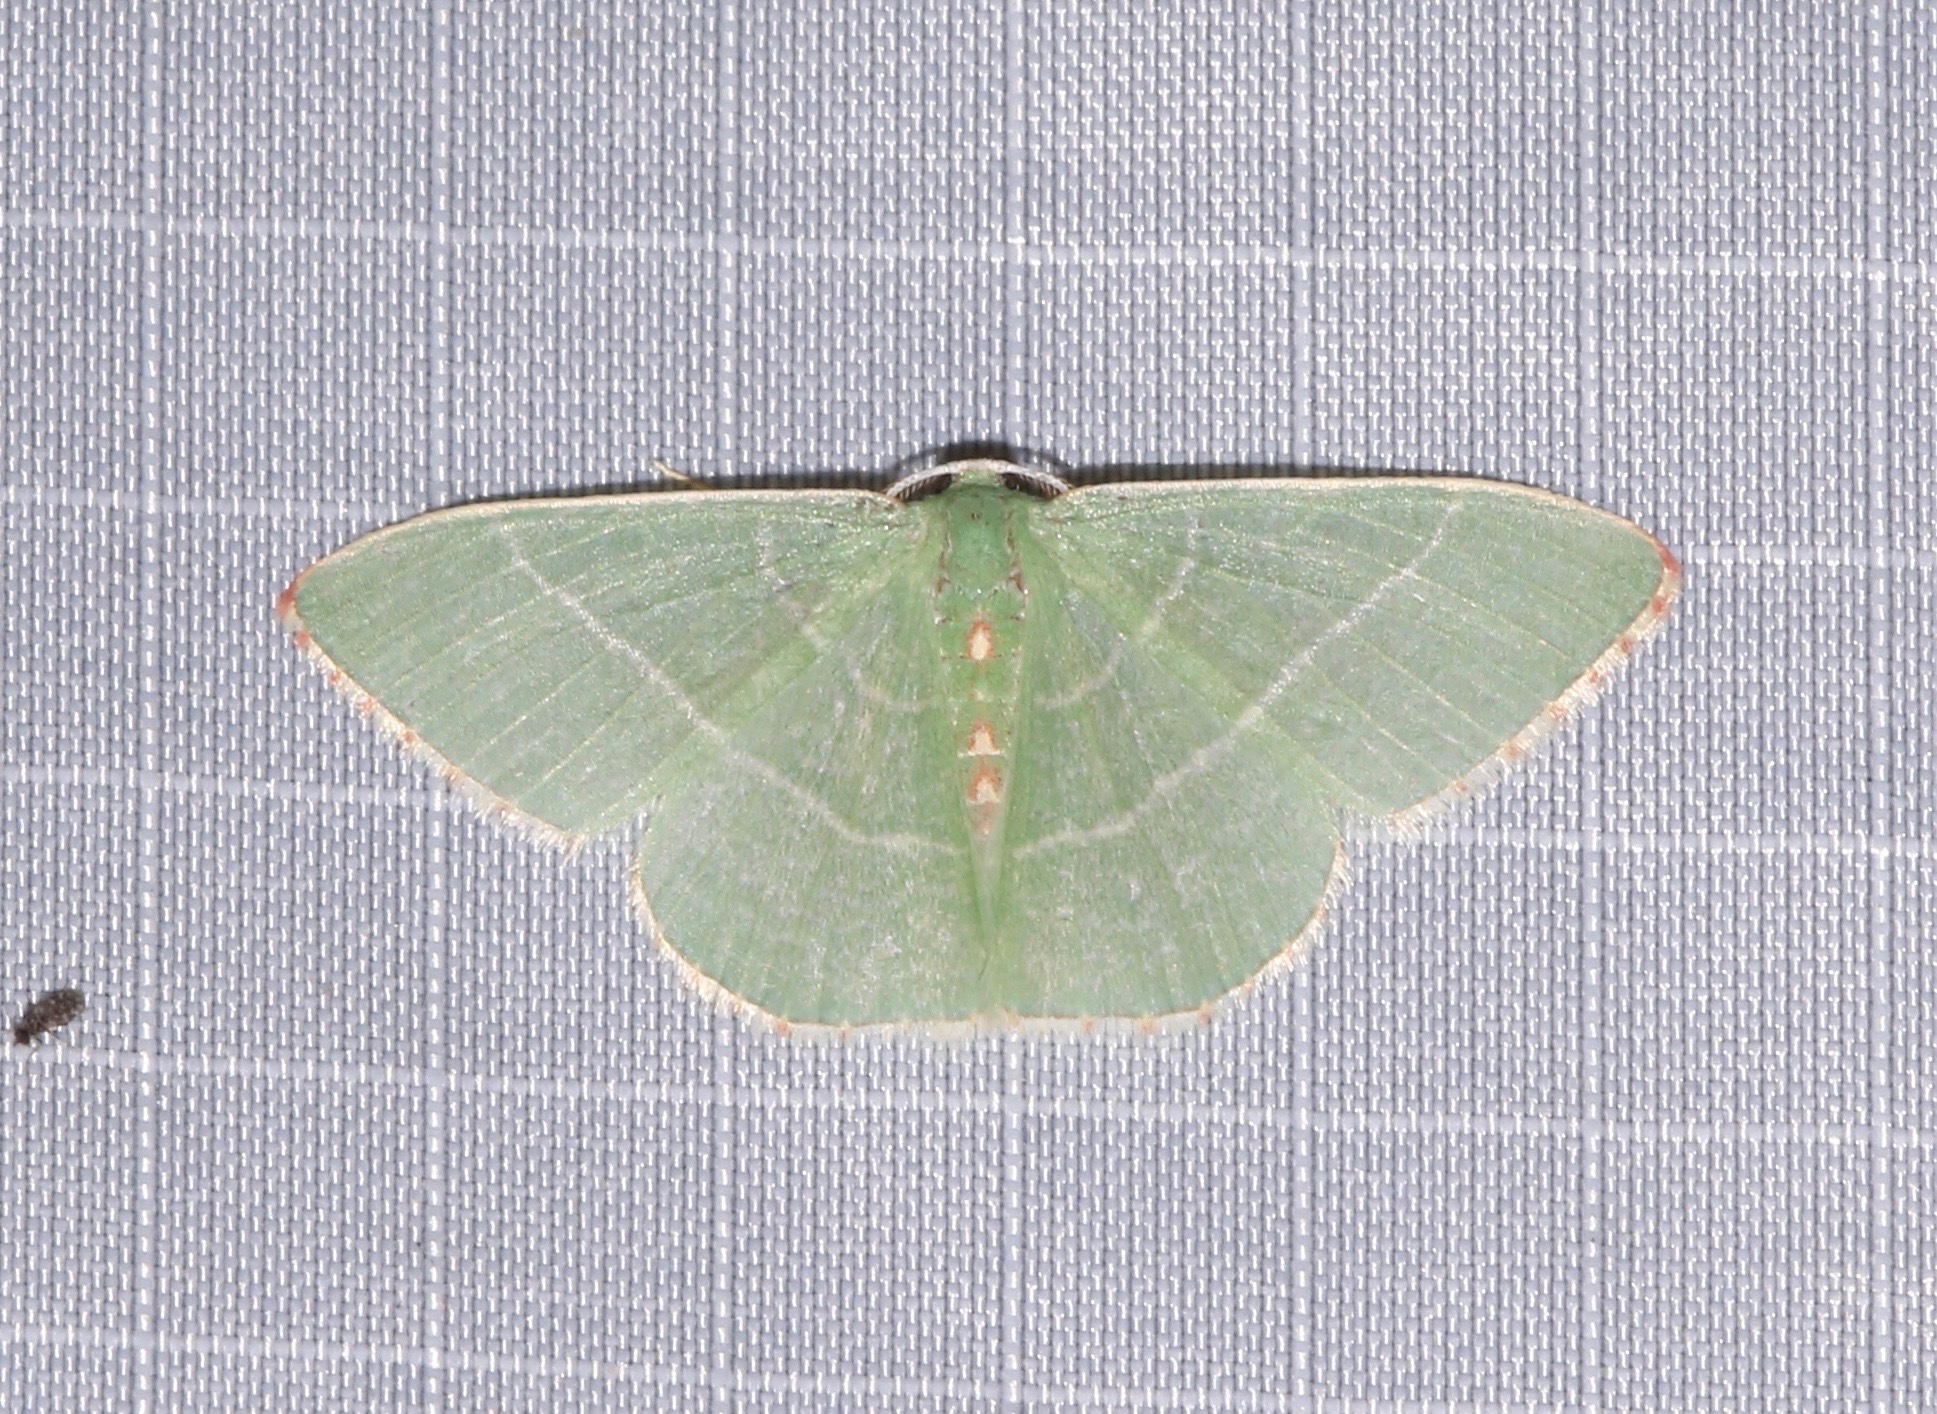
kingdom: Animalia
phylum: Arthropoda
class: Insecta
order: Lepidoptera
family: Geometridae
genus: Nemoria
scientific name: Nemoria darwiniata
